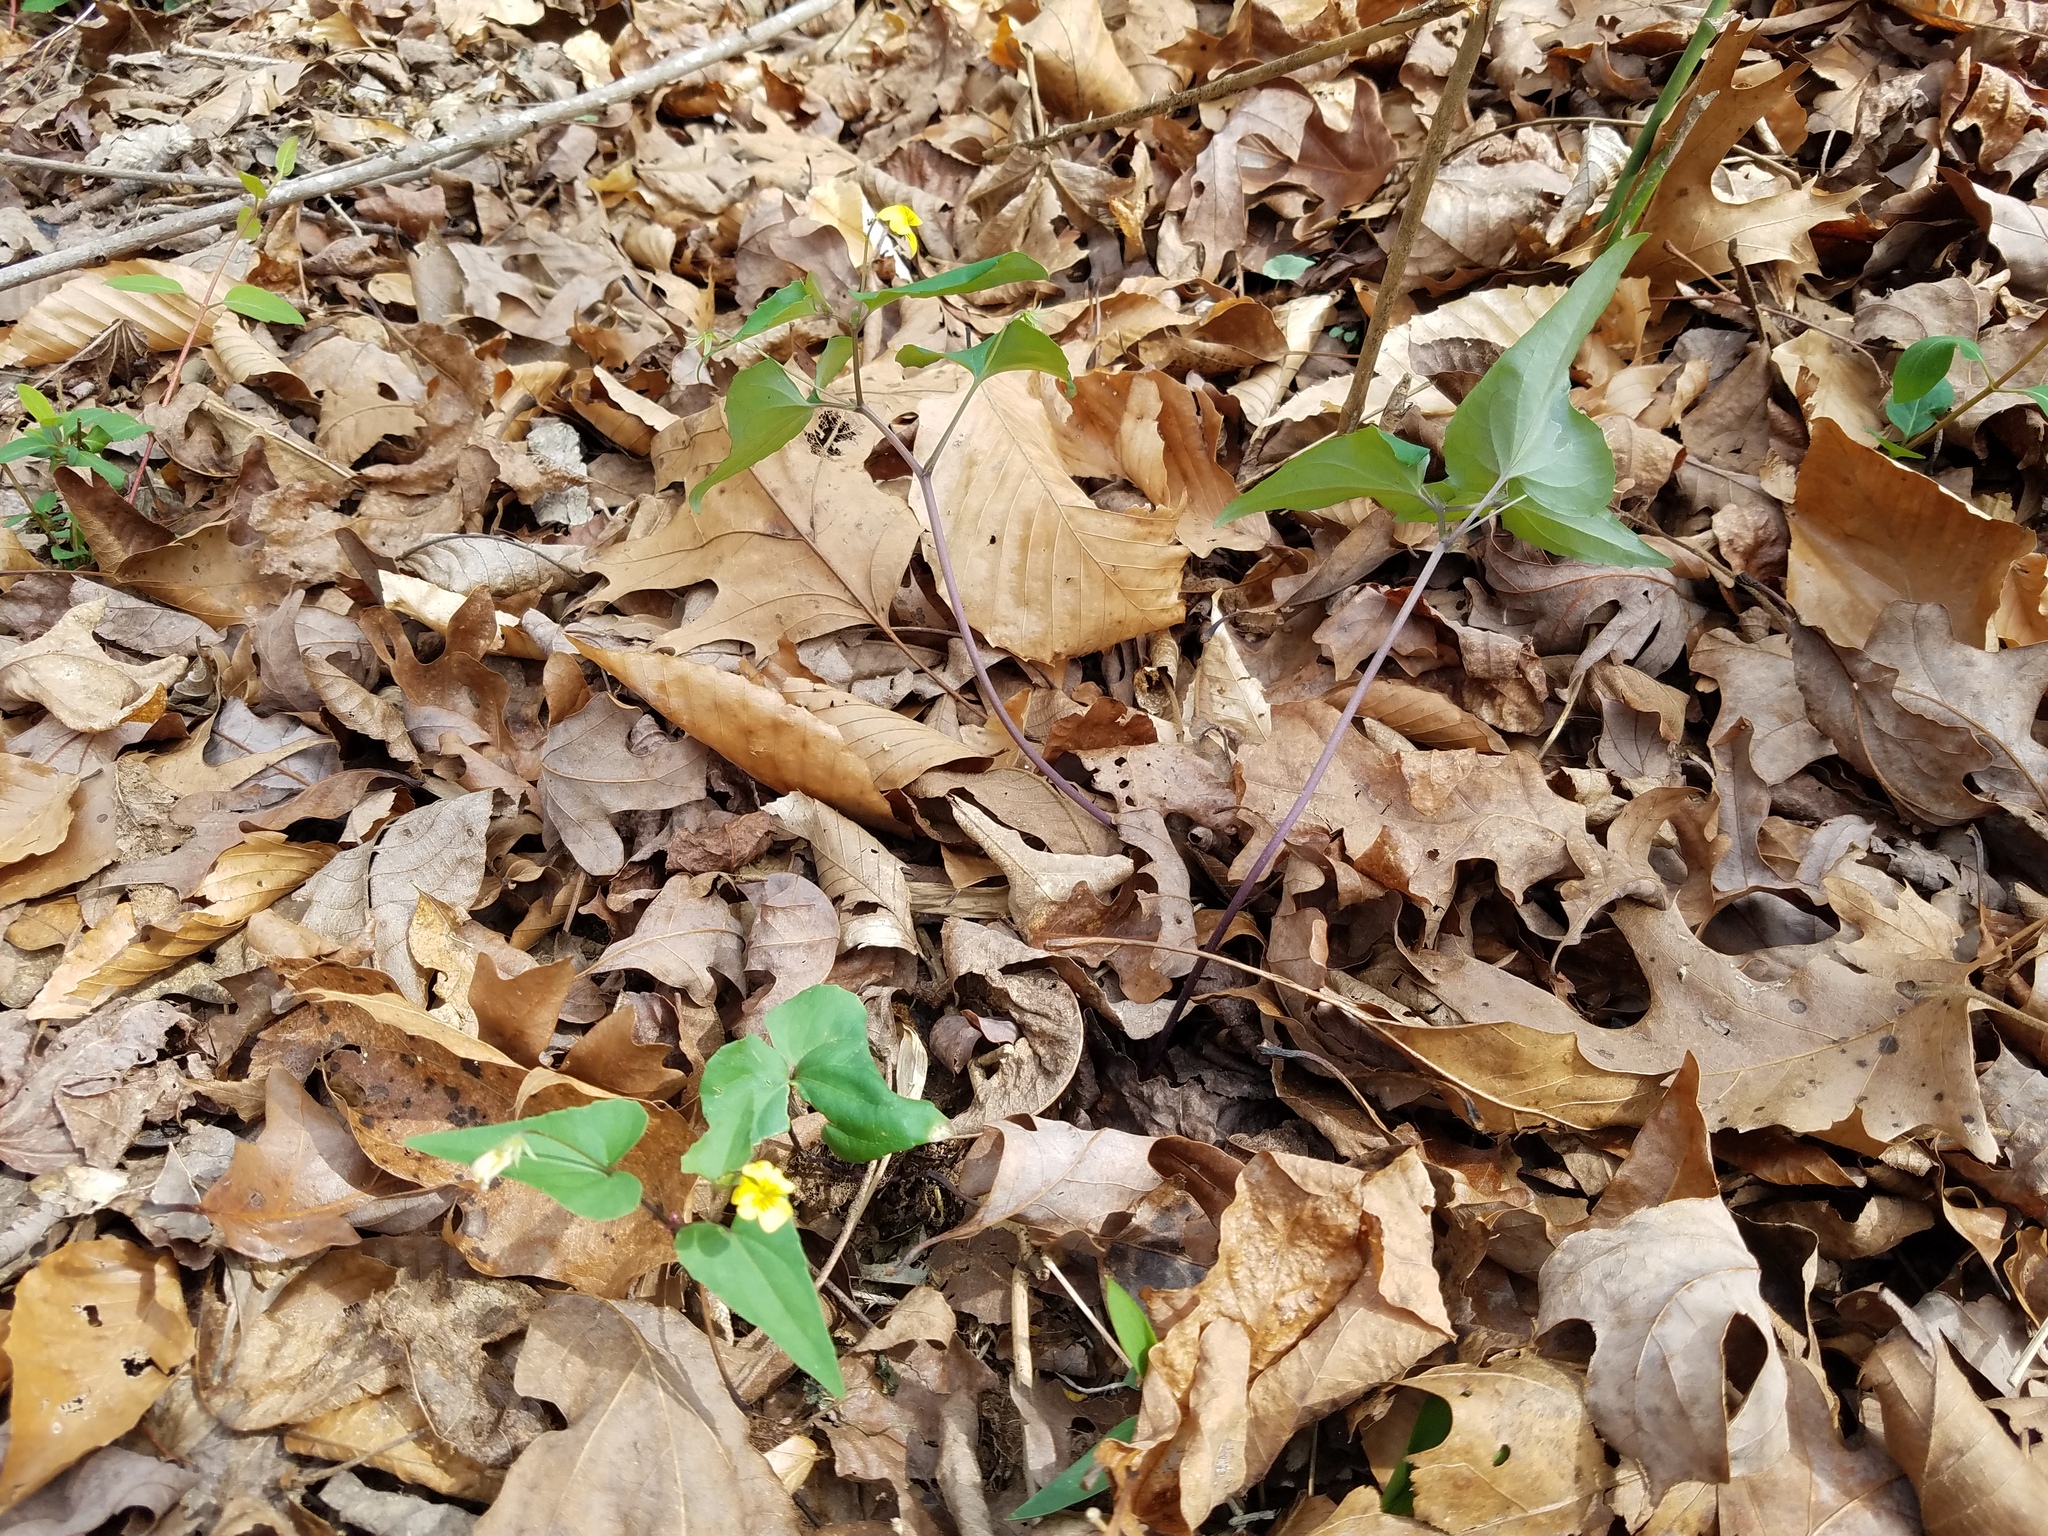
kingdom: Plantae
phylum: Tracheophyta
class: Magnoliopsida
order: Malpighiales
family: Violaceae
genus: Viola
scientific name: Viola hastata
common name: Spear-leaf violet
